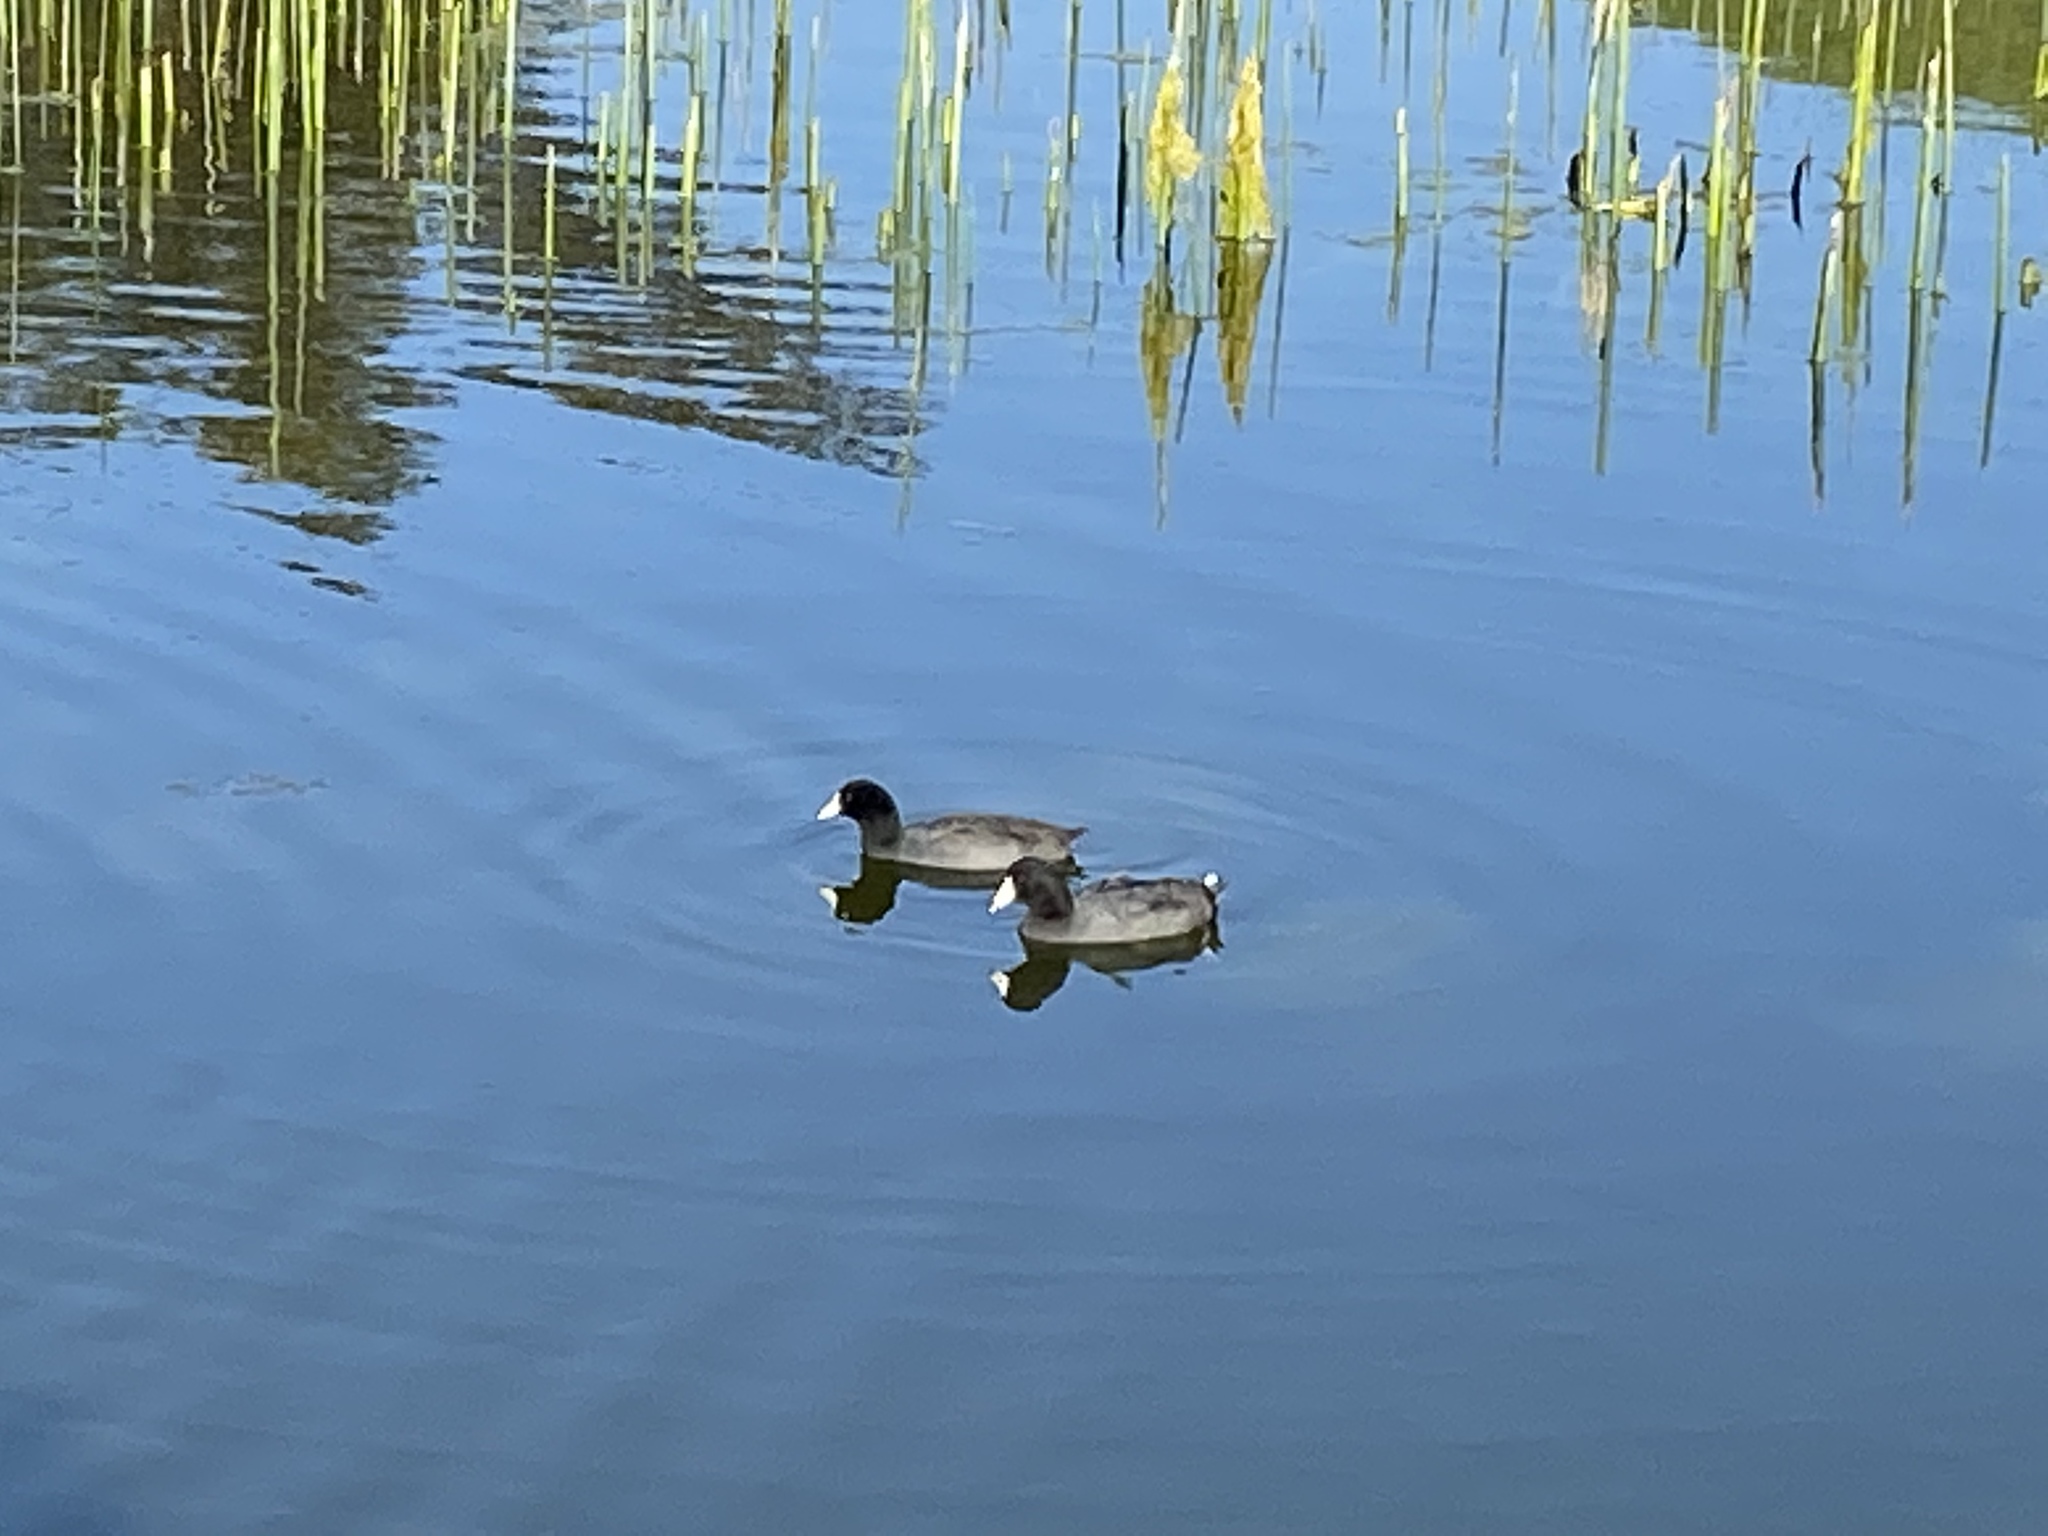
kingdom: Animalia
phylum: Chordata
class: Aves
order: Gruiformes
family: Rallidae
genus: Fulica
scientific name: Fulica americana
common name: American coot
